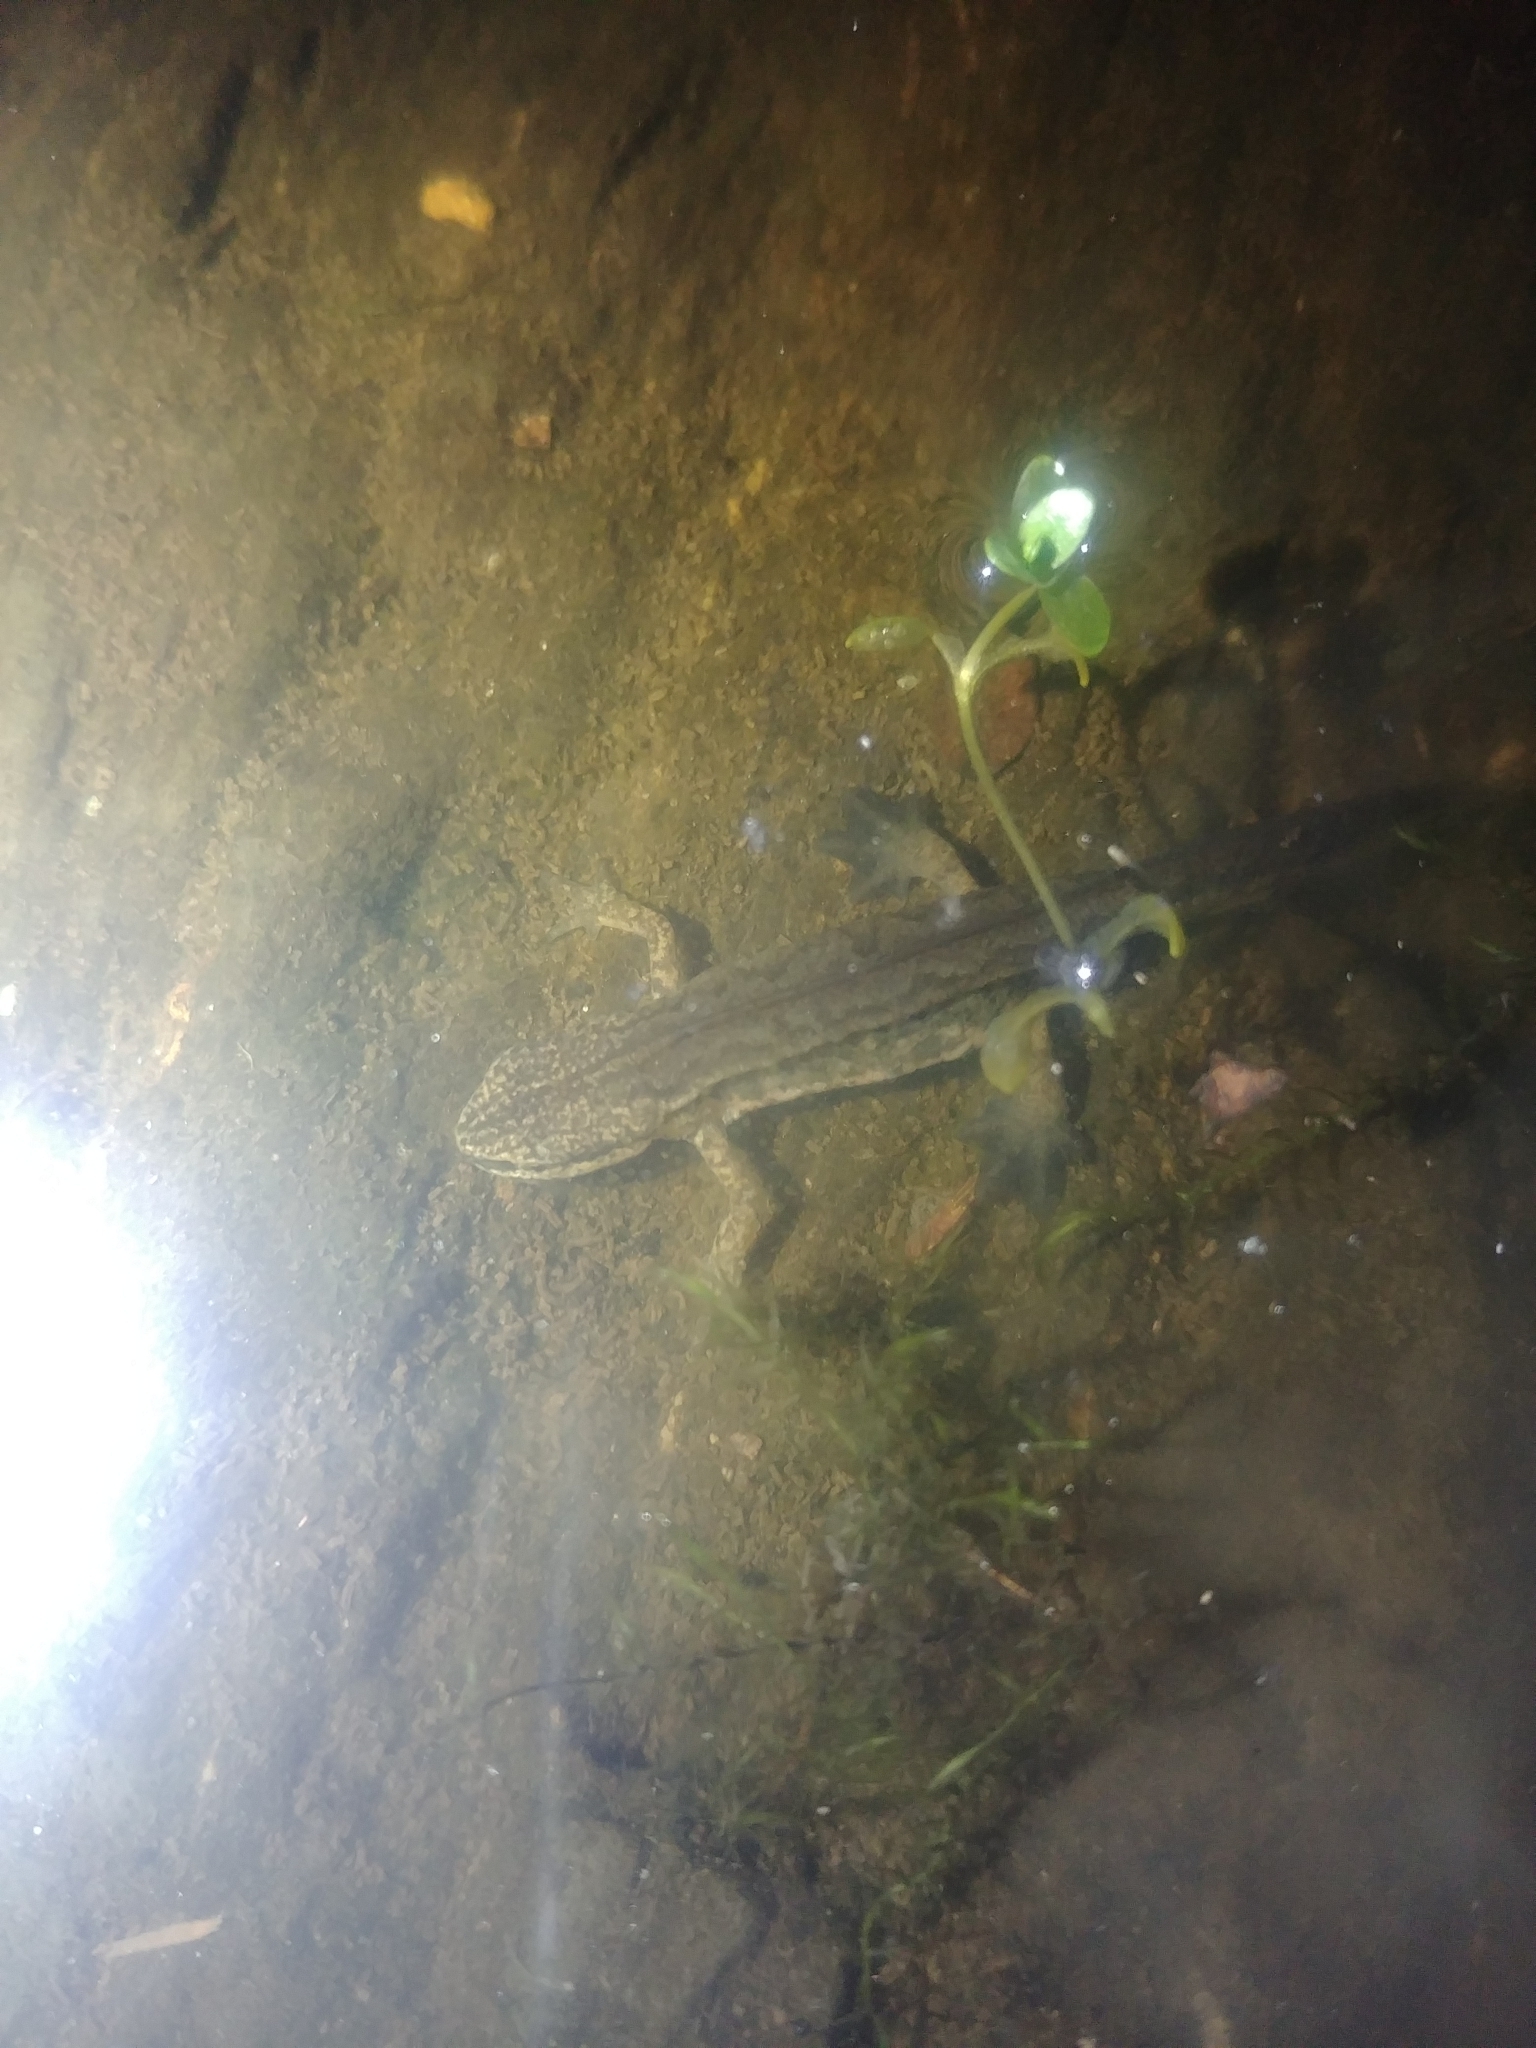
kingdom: Animalia
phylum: Chordata
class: Amphibia
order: Caudata
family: Salamandridae
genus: Lissotriton
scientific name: Lissotriton helveticus
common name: Palmate newt
